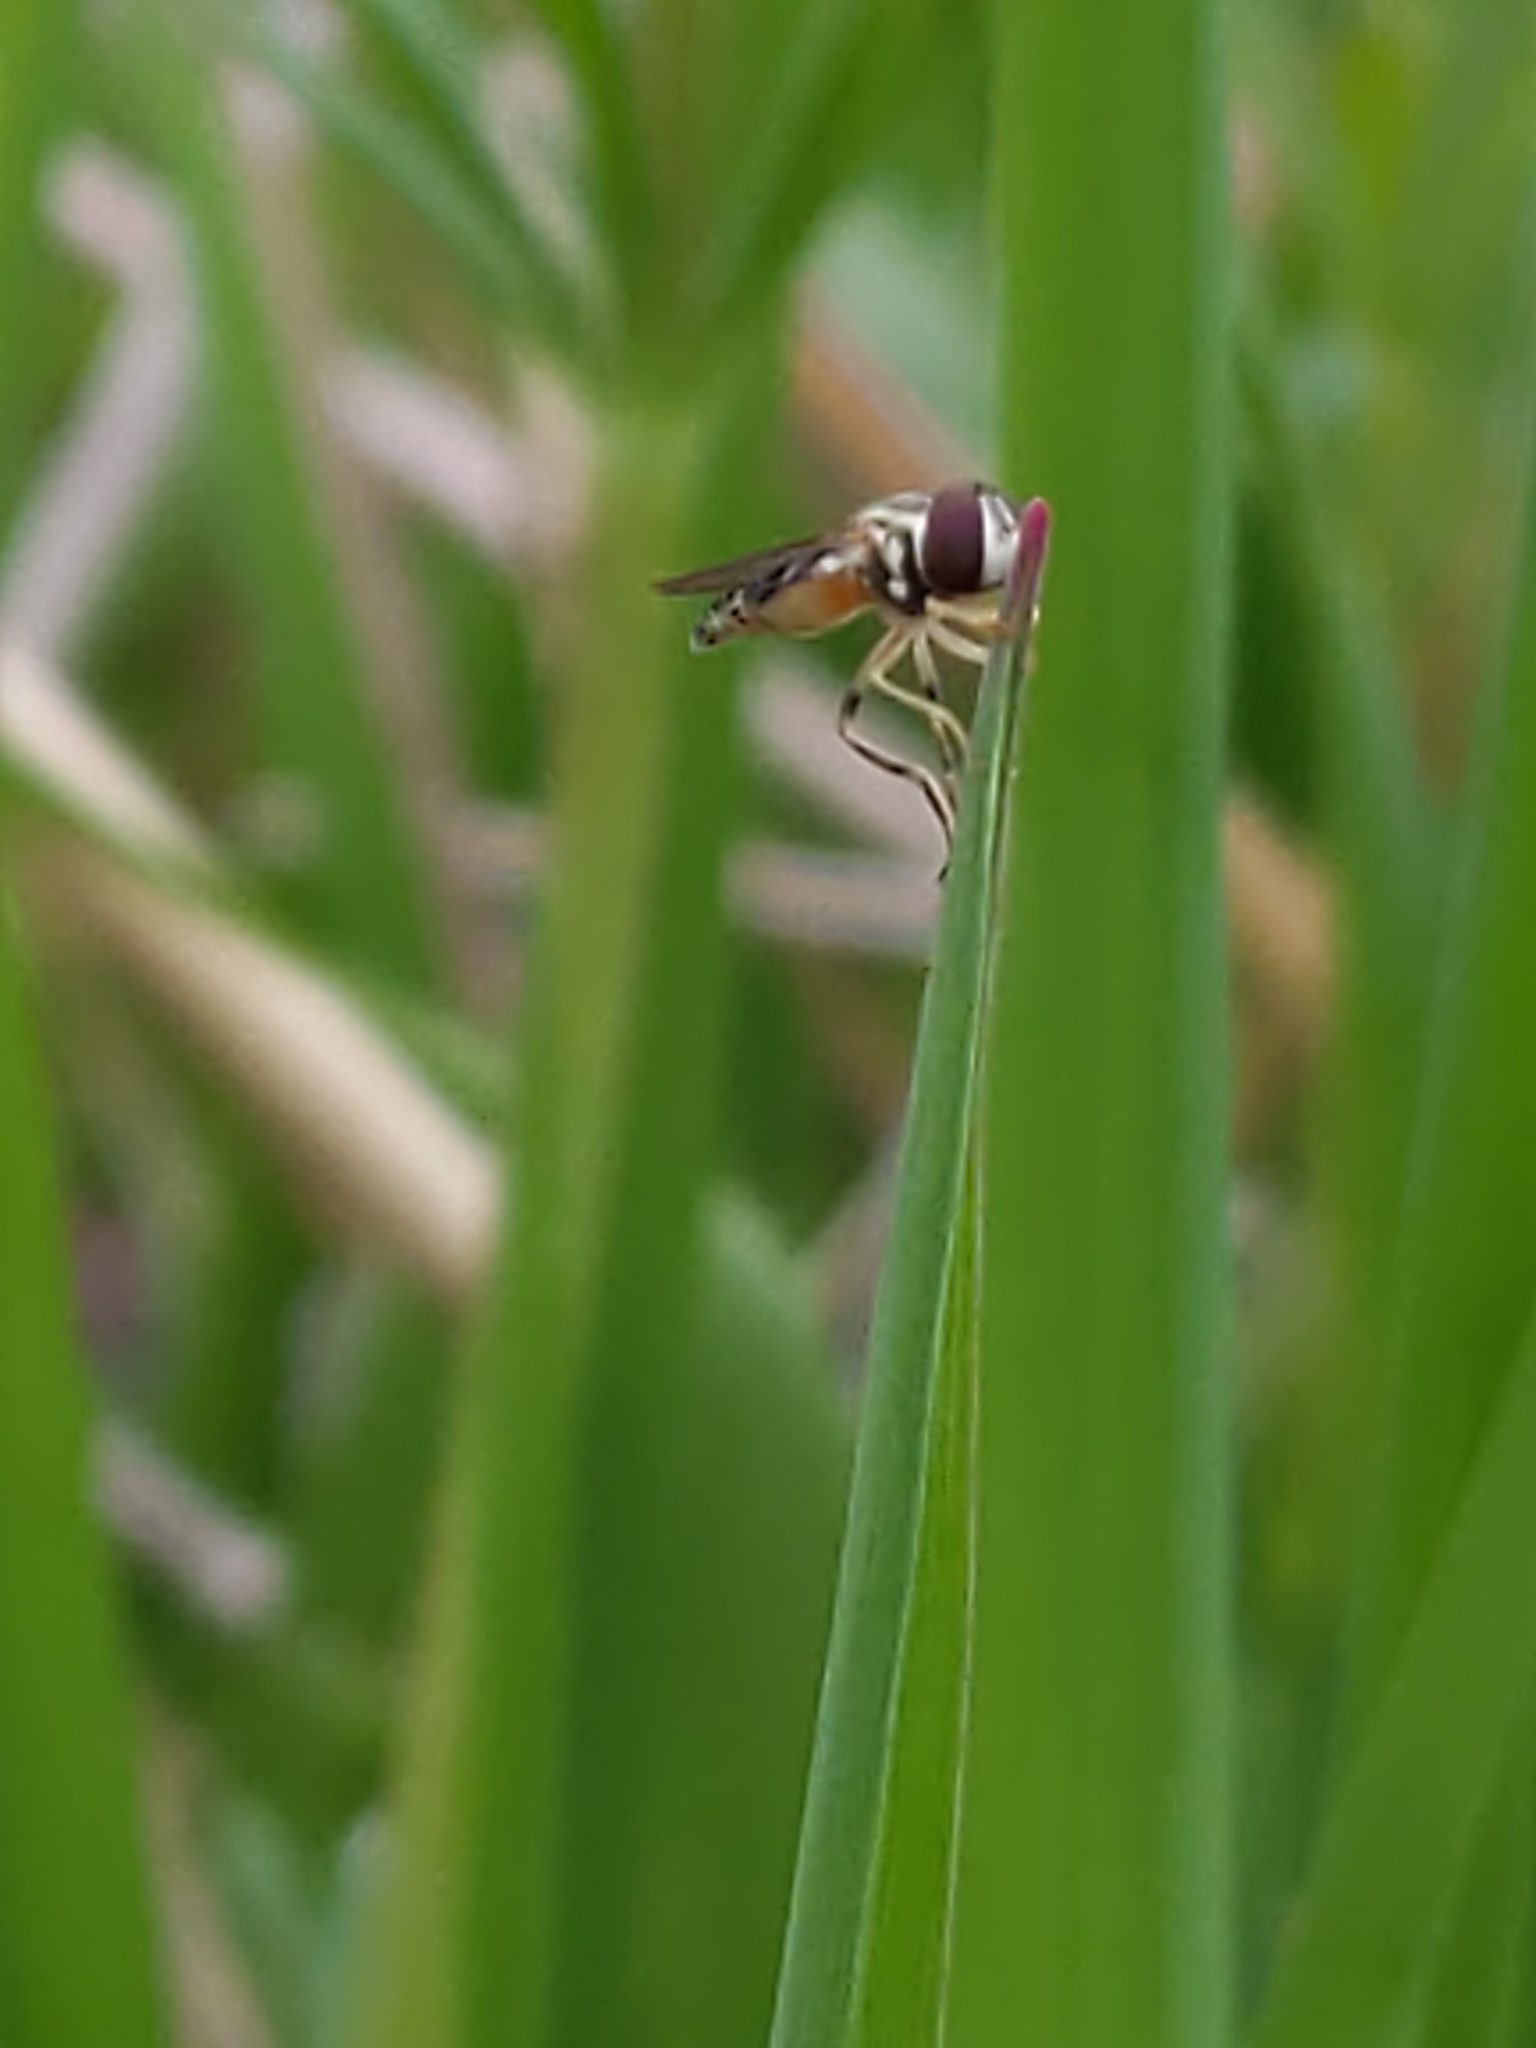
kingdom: Animalia
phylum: Arthropoda
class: Insecta
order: Diptera
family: Syrphidae
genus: Toxomerus
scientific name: Toxomerus geminatus
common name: Eastern calligrapher
